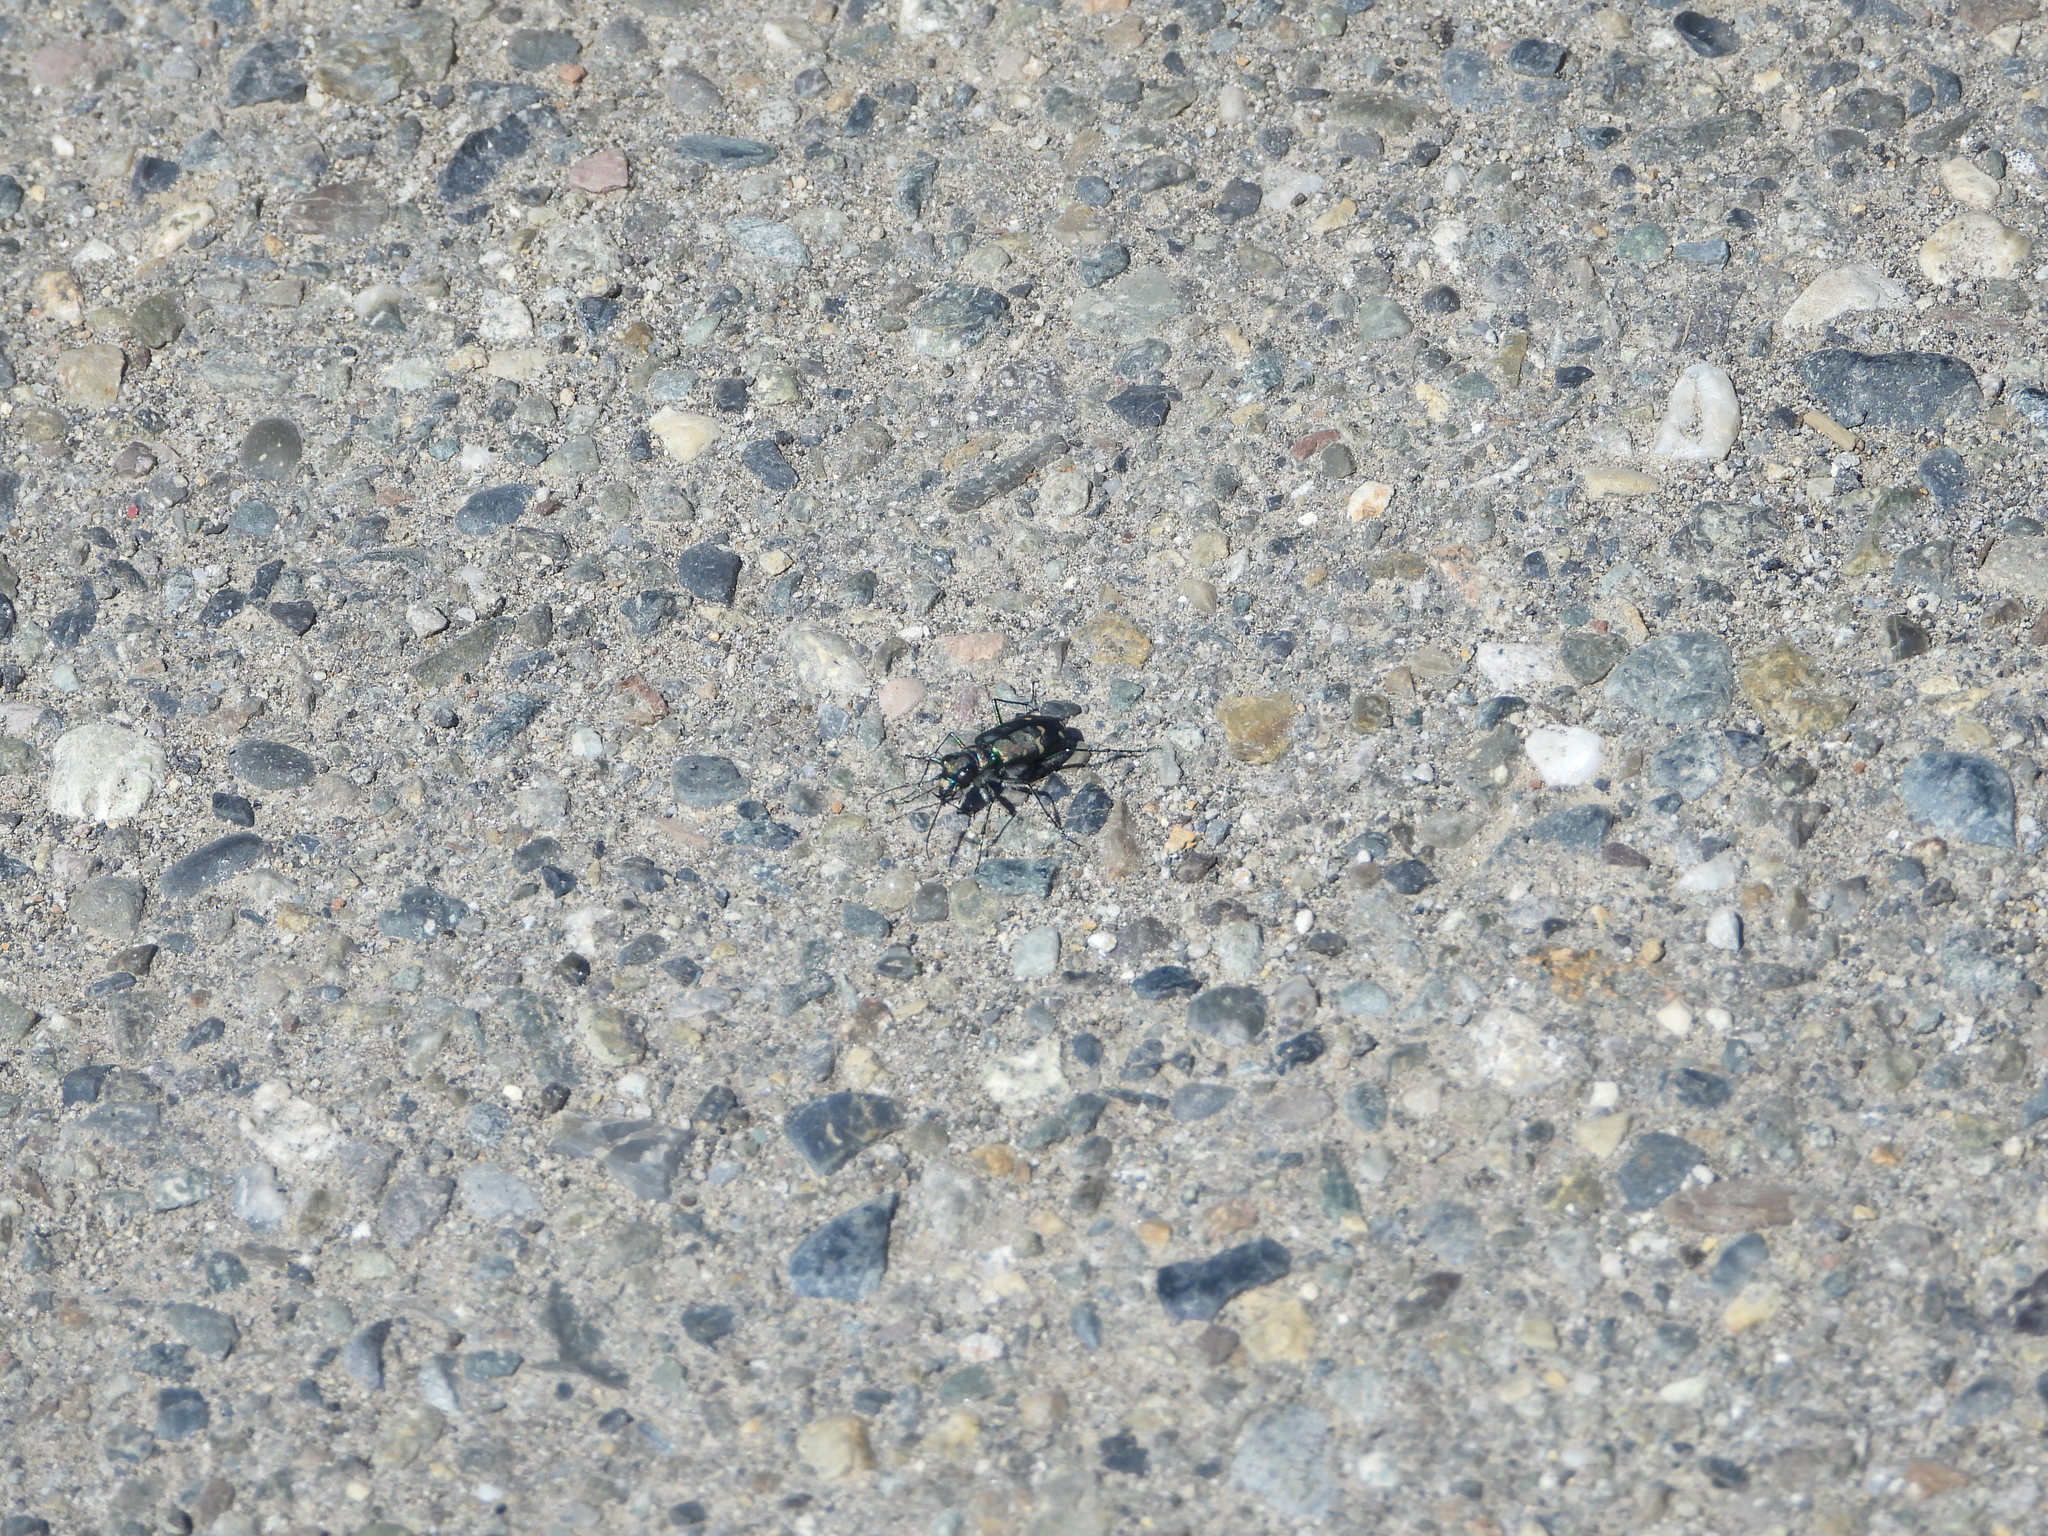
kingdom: Animalia
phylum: Arthropoda
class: Insecta
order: Coleoptera
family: Carabidae
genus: Cicindela
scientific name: Cicindela depressula
